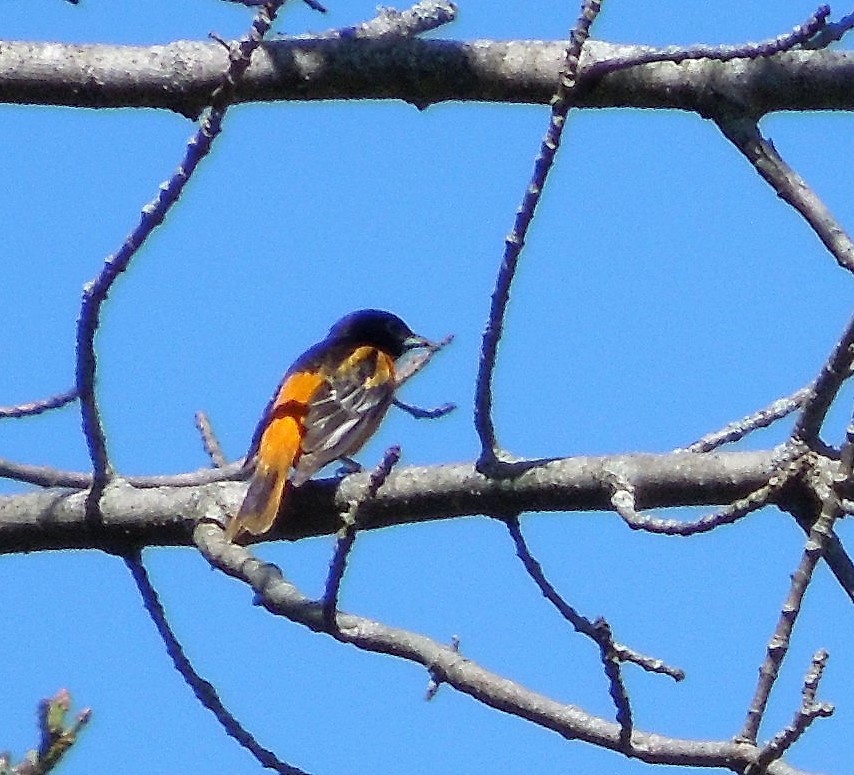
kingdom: Animalia
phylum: Chordata
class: Aves
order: Passeriformes
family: Icteridae
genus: Icterus
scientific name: Icterus galbula
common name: Baltimore oriole
